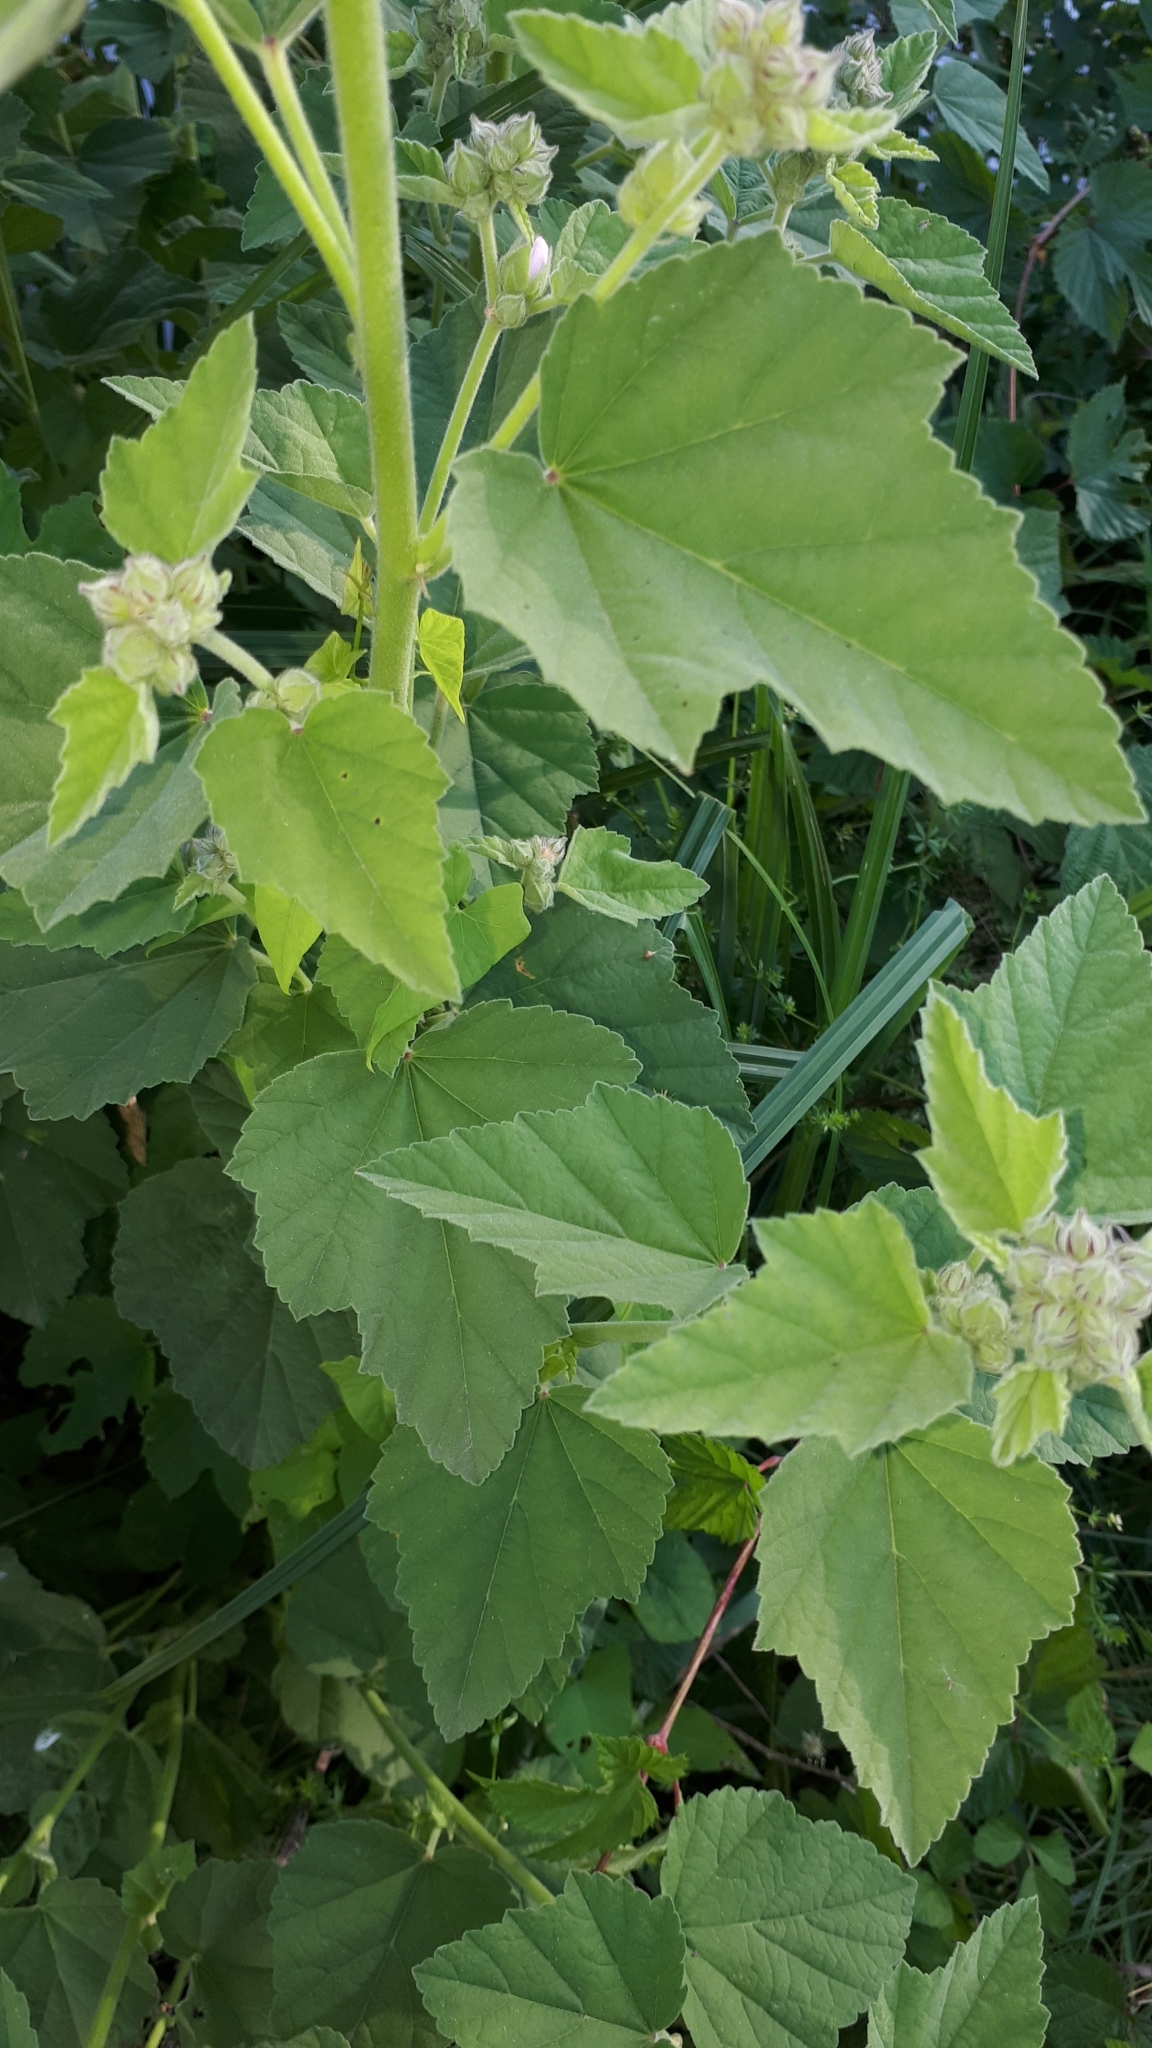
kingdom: Plantae
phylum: Tracheophyta
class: Magnoliopsida
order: Malvales
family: Malvaceae
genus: Althaea
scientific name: Althaea officinalis
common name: Marsh-mallow
